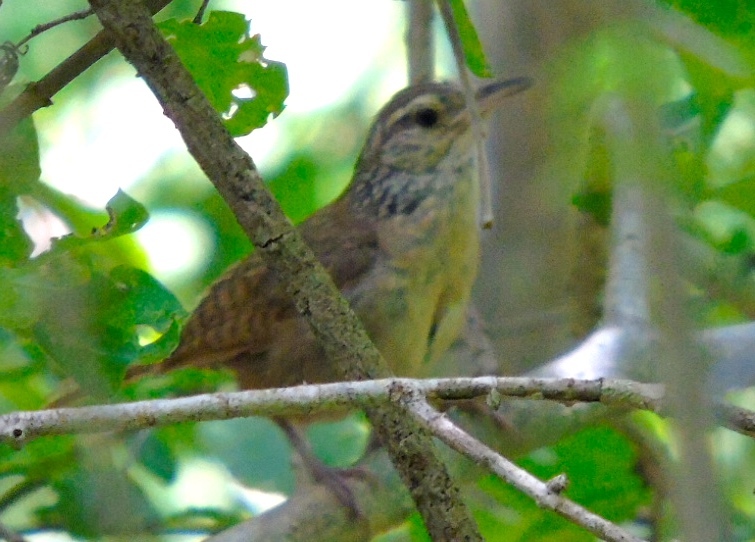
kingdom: Animalia
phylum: Chordata
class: Aves
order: Passeriformes
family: Troglodytidae
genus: Thryophilus
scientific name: Thryophilus sinaloa
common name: Sinaloa wren
